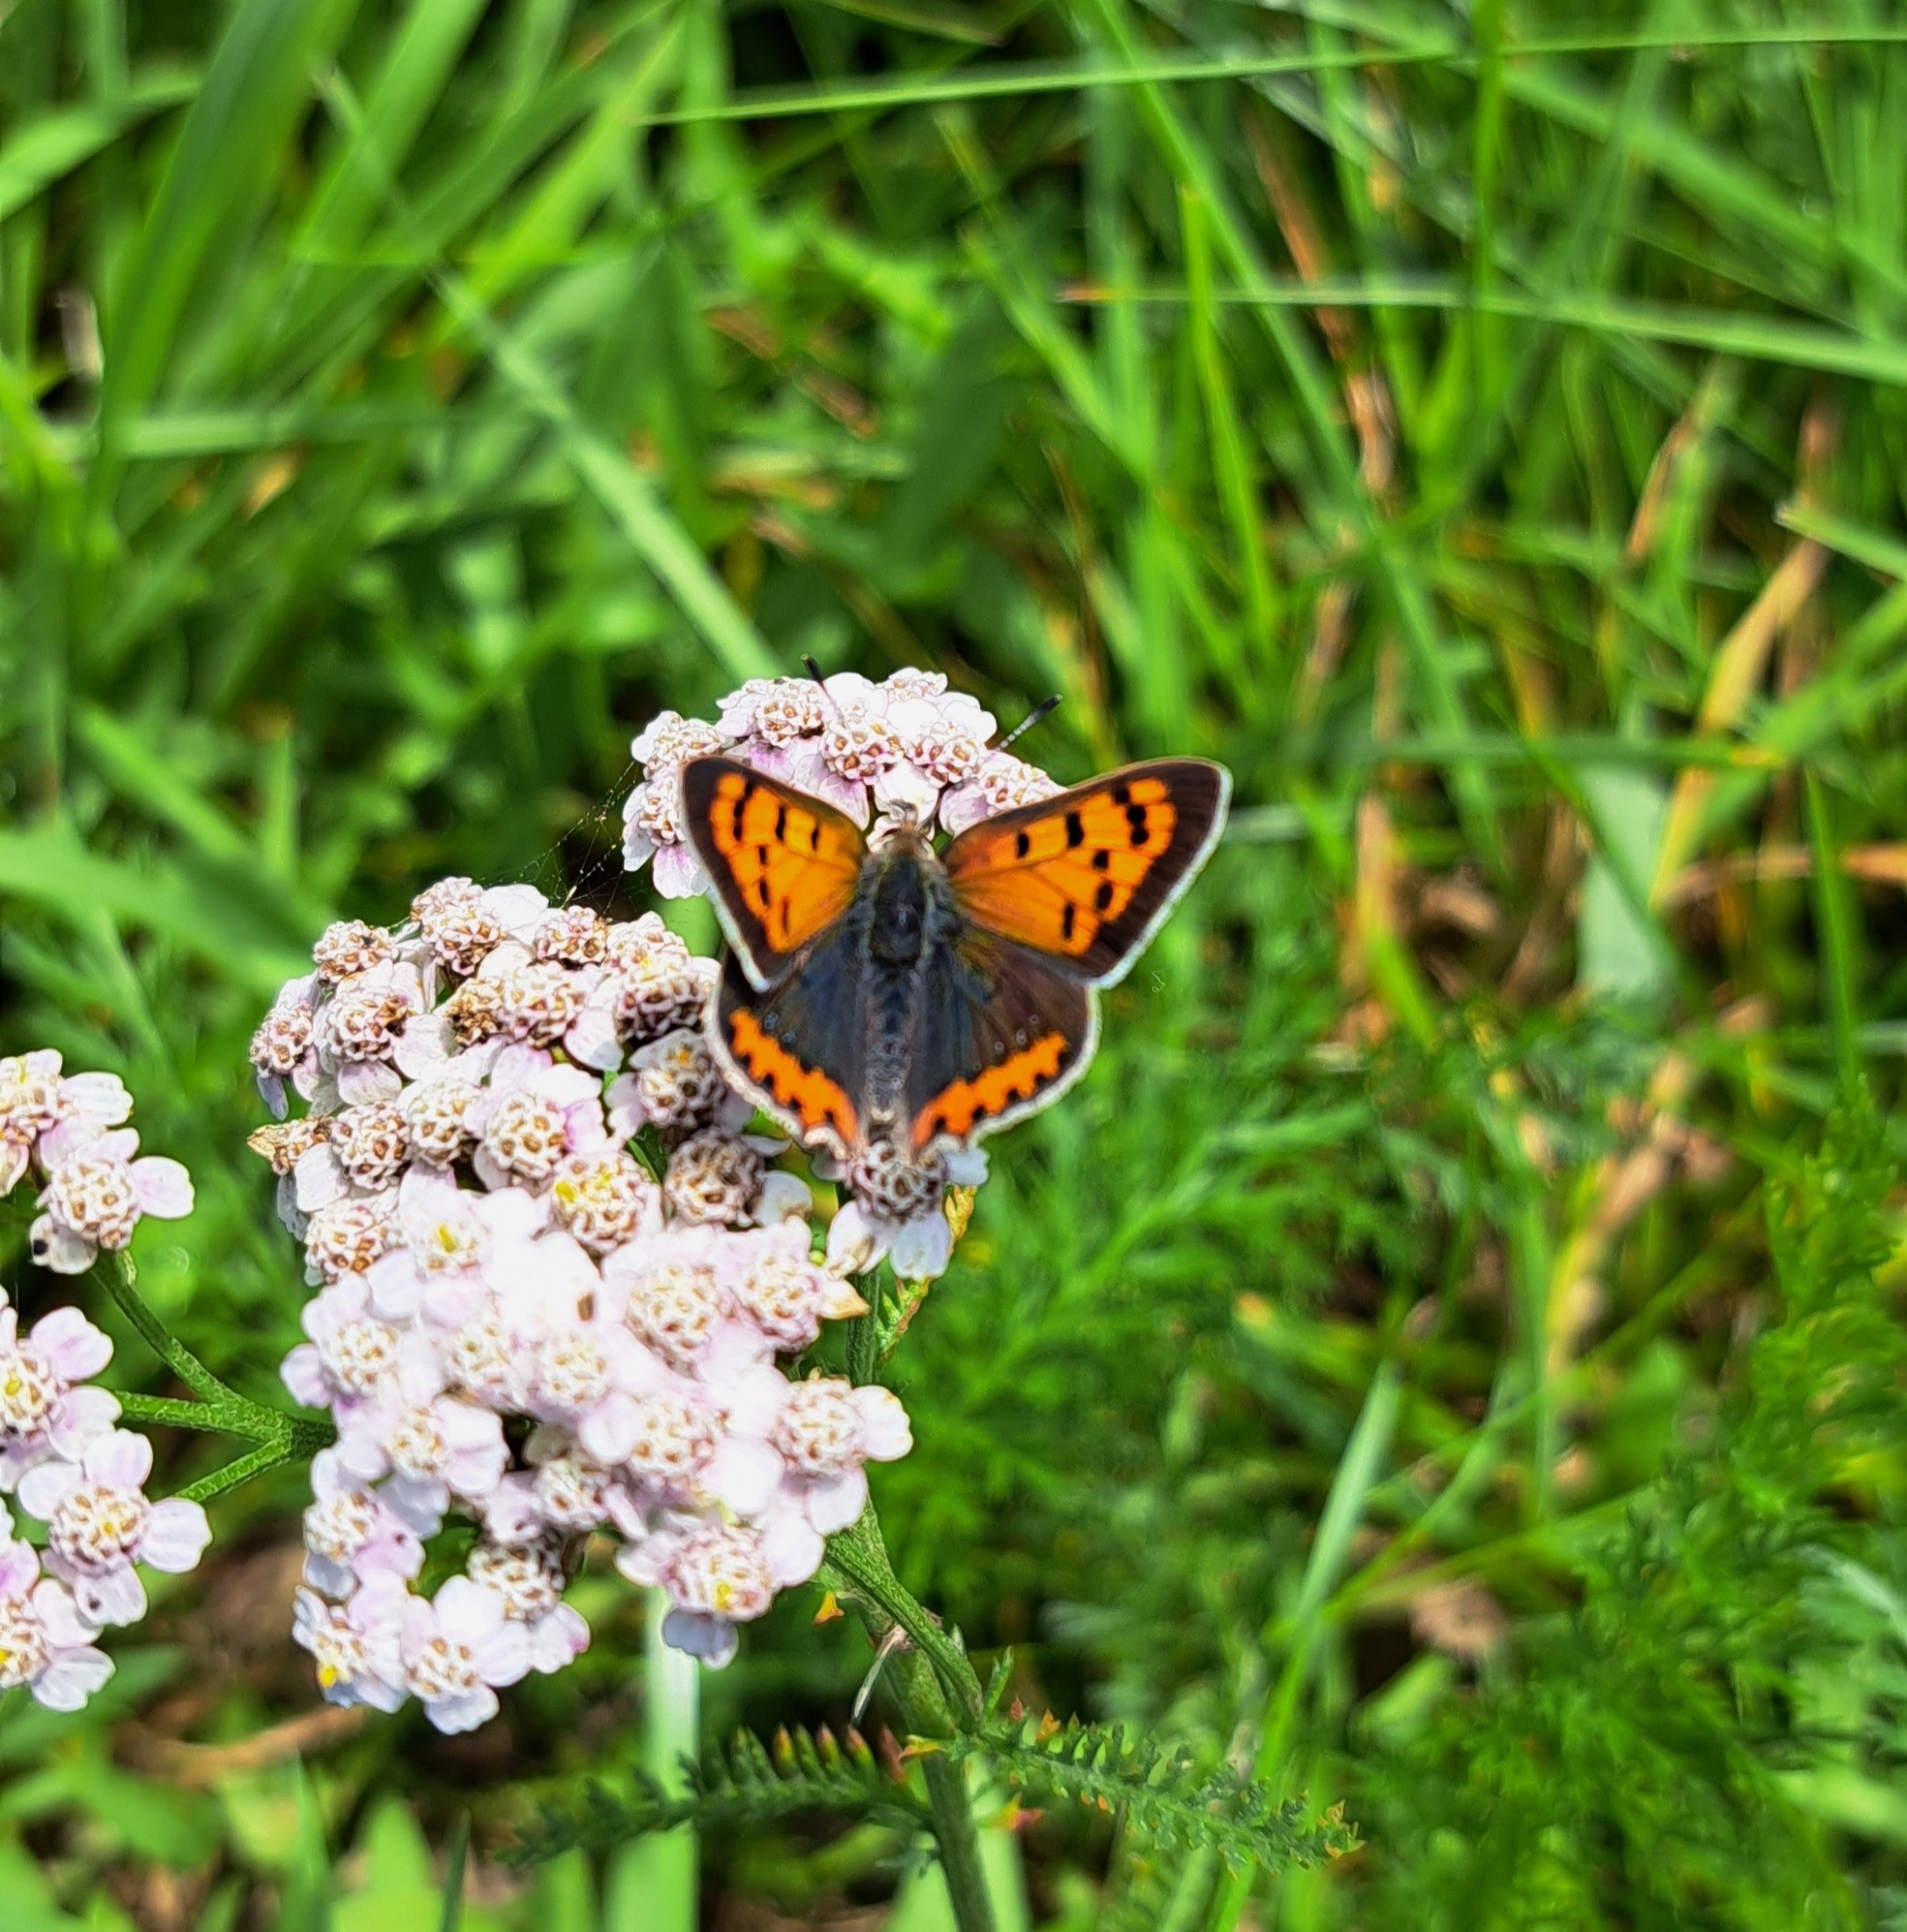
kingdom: Animalia
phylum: Arthropoda
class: Insecta
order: Lepidoptera
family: Lycaenidae
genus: Lycaena
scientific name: Lycaena phlaeas
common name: Small copper
